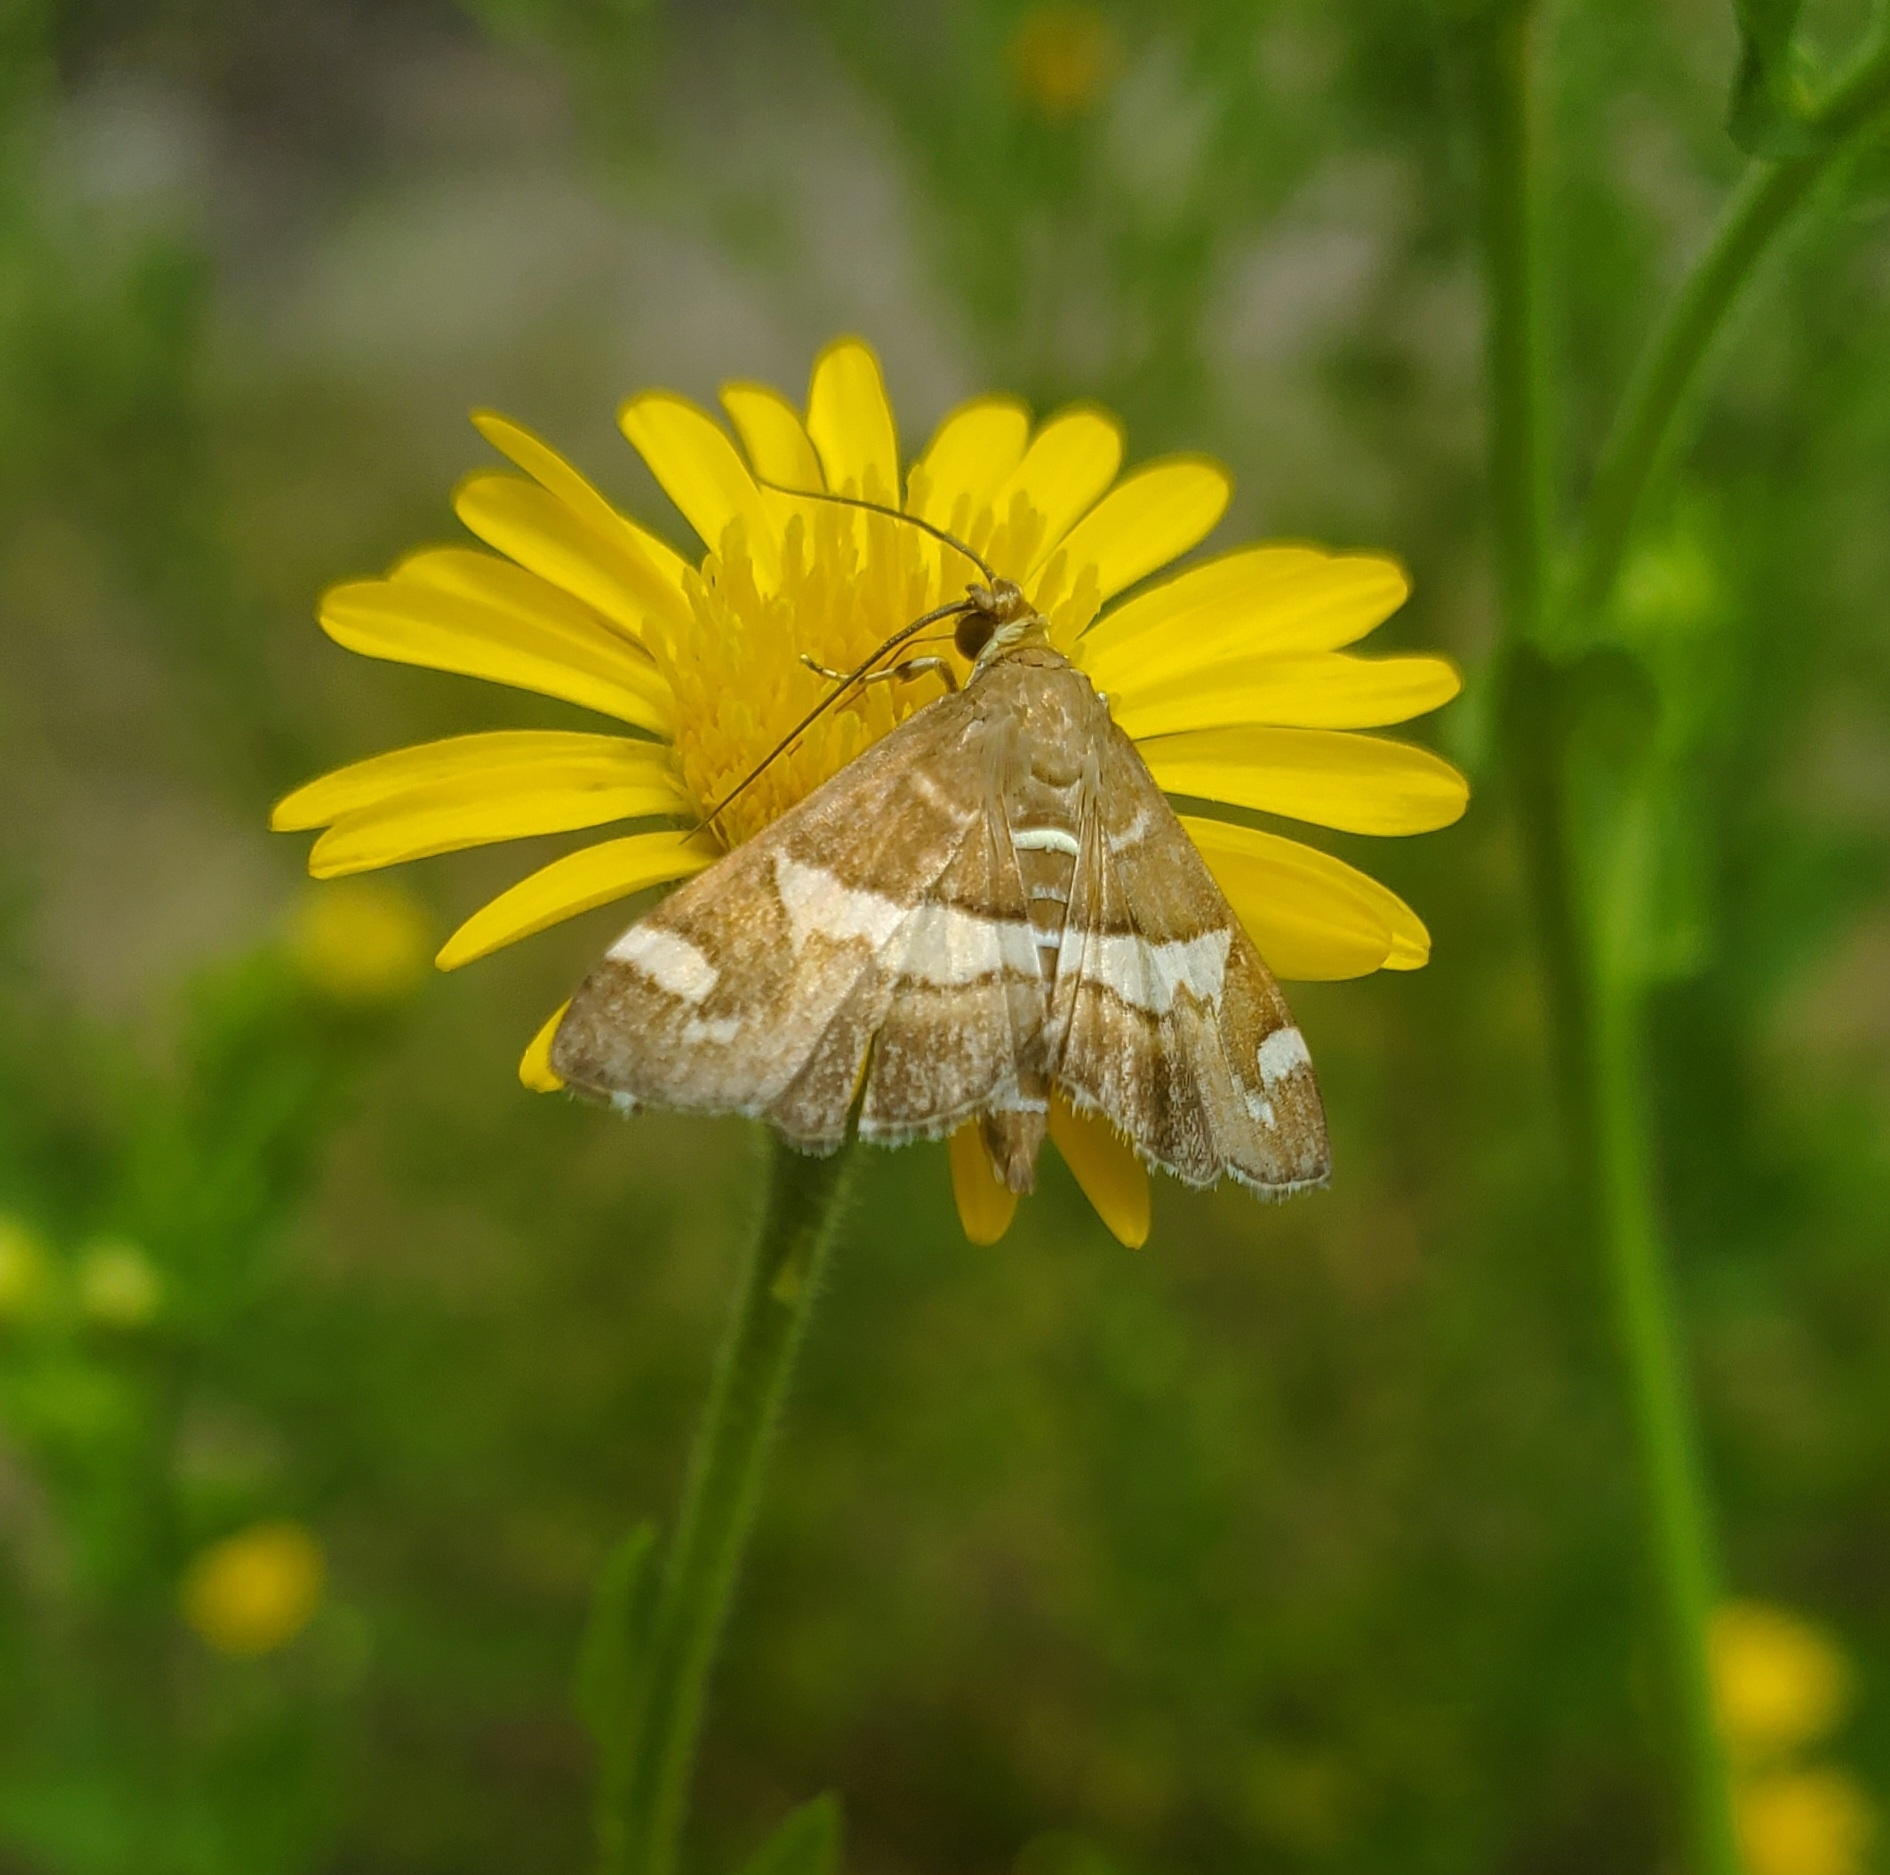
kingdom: Animalia
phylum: Arthropoda
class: Insecta
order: Lepidoptera
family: Crambidae
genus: Spoladea
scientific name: Spoladea recurvalis
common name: Beet webworm moth
